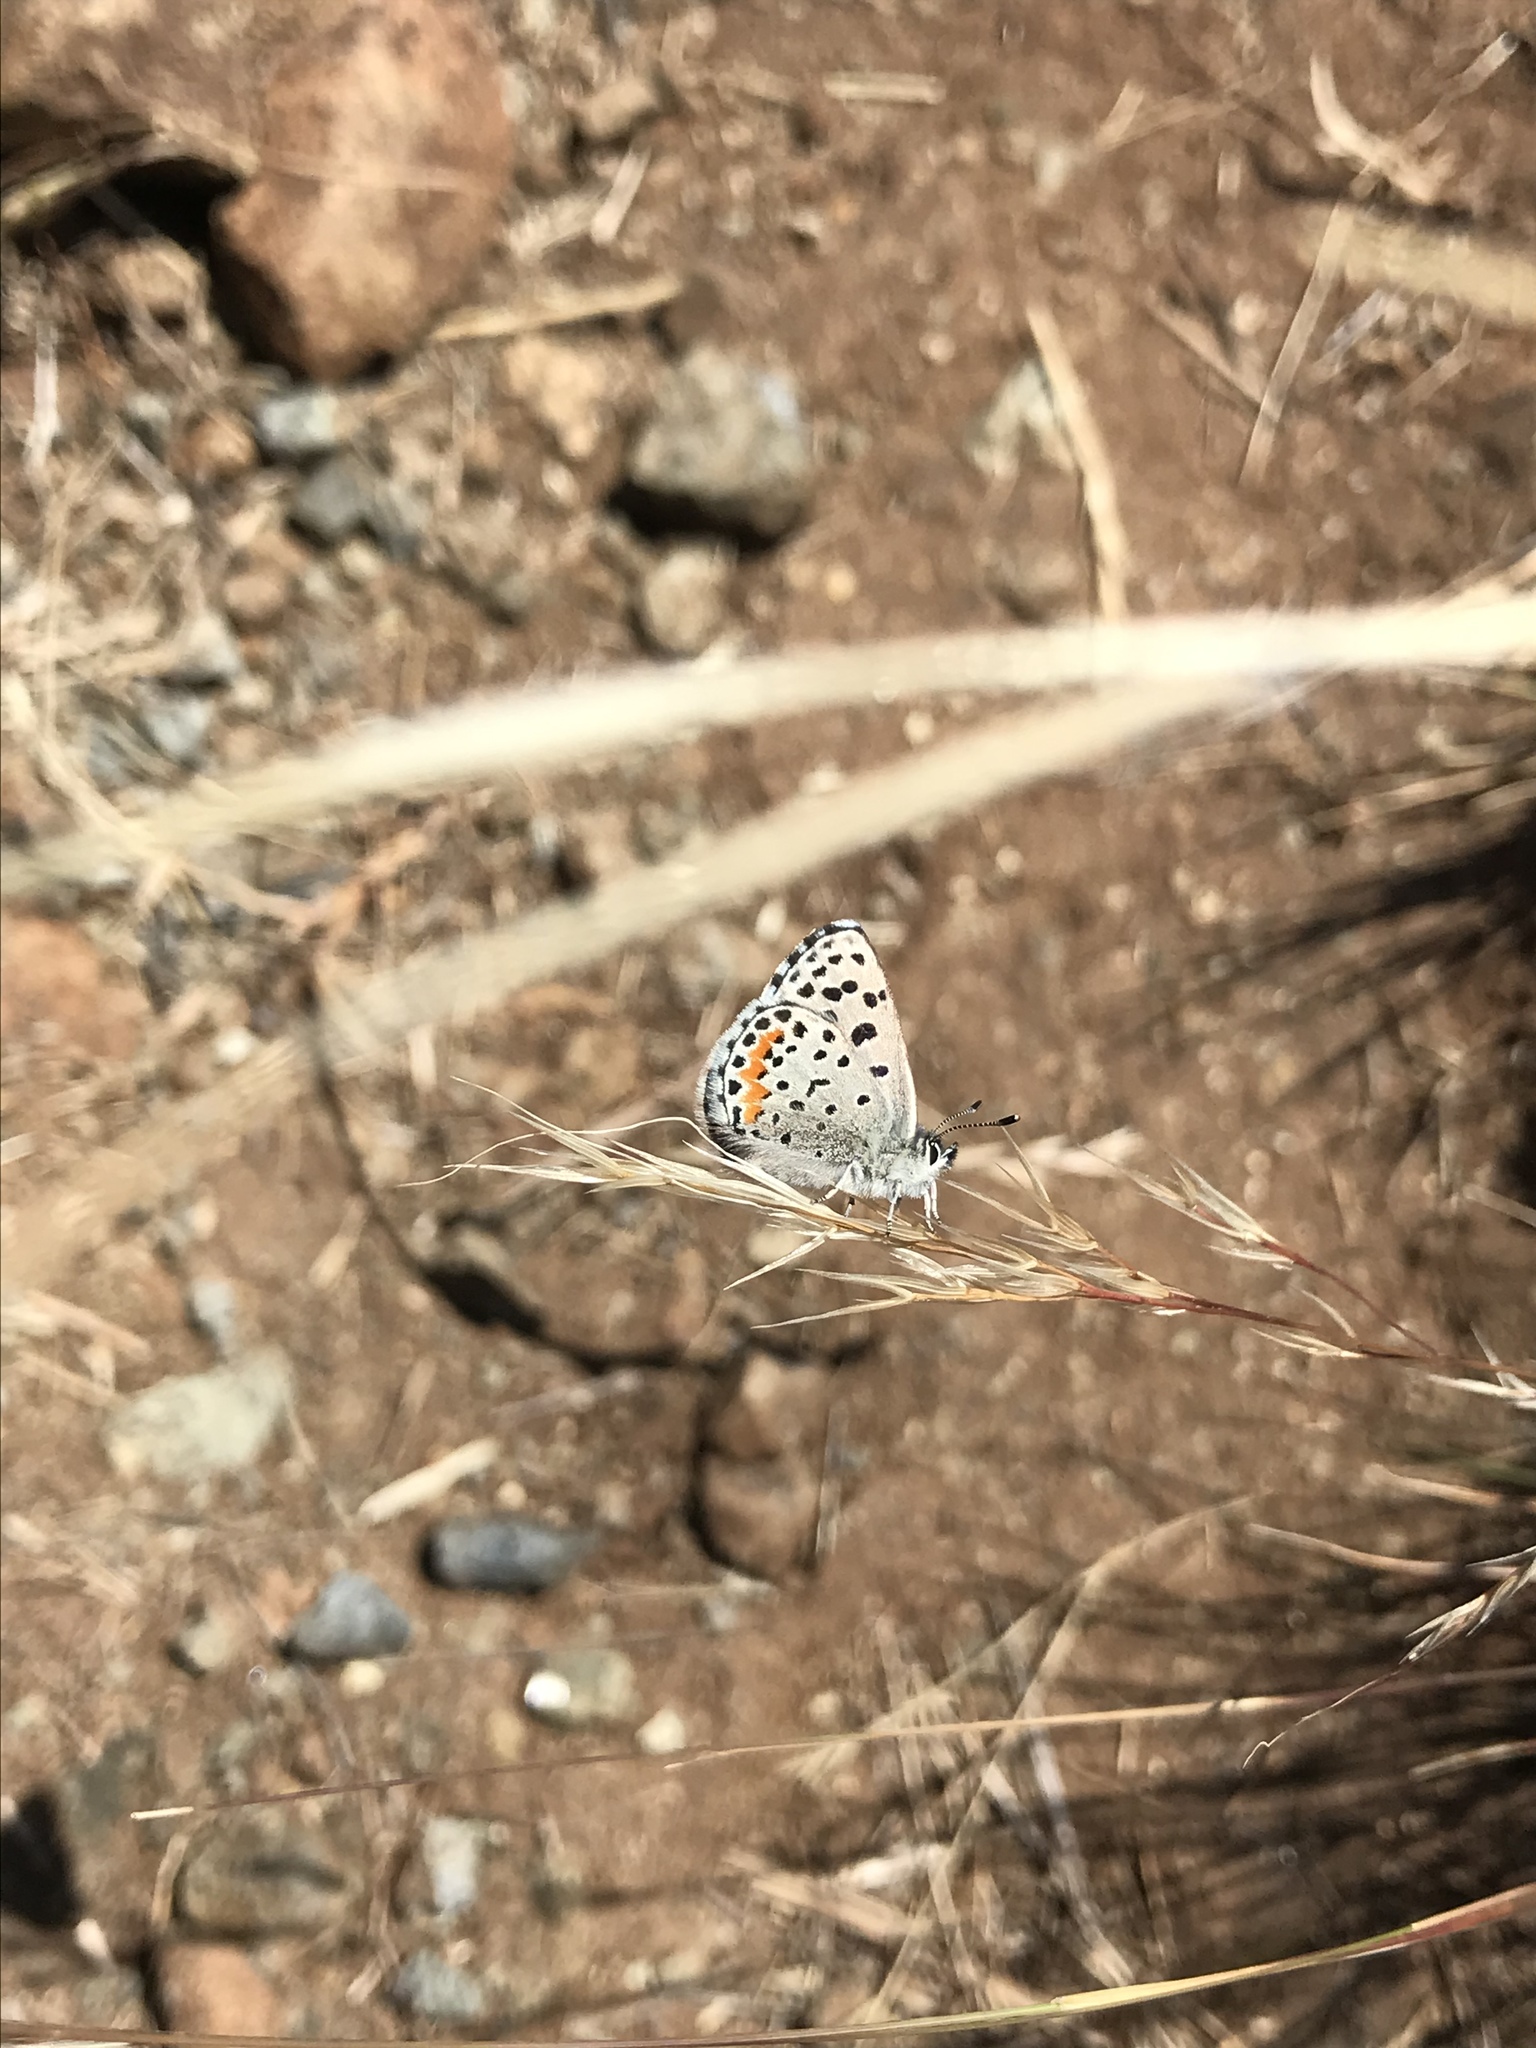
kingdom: Animalia
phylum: Arthropoda
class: Insecta
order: Lepidoptera
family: Lycaenidae
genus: Euphilotes
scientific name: Euphilotes enoptes
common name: Dotted blue
